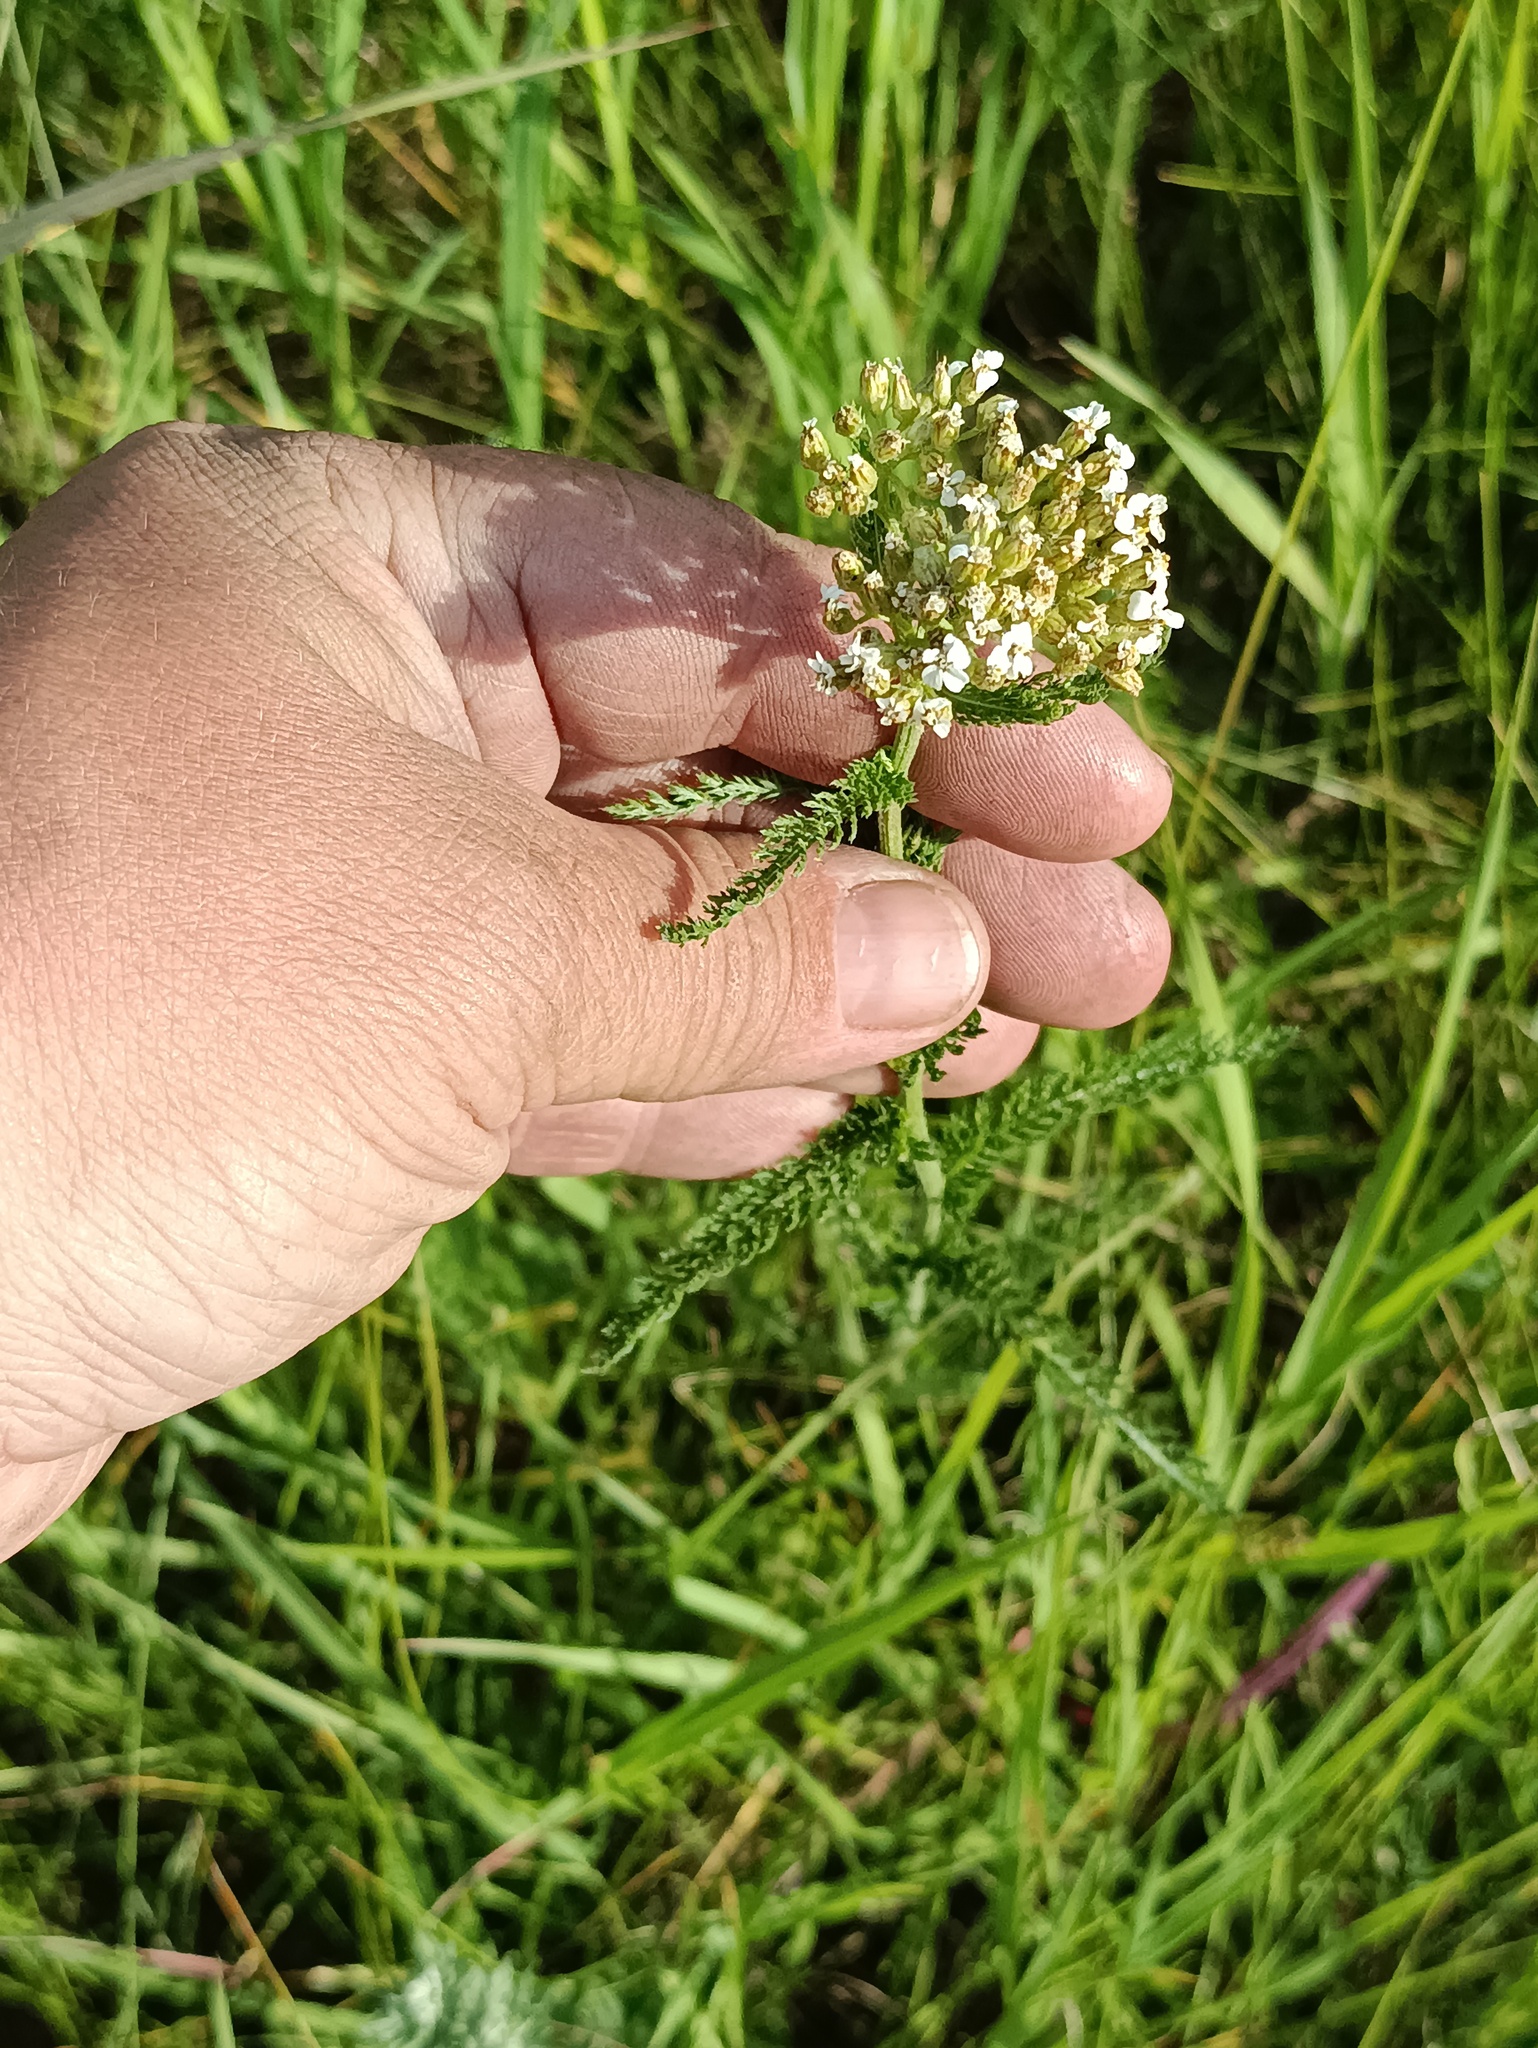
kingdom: Plantae
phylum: Tracheophyta
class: Magnoliopsida
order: Asterales
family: Asteraceae
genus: Achillea
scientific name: Achillea millefolium
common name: Yarrow
